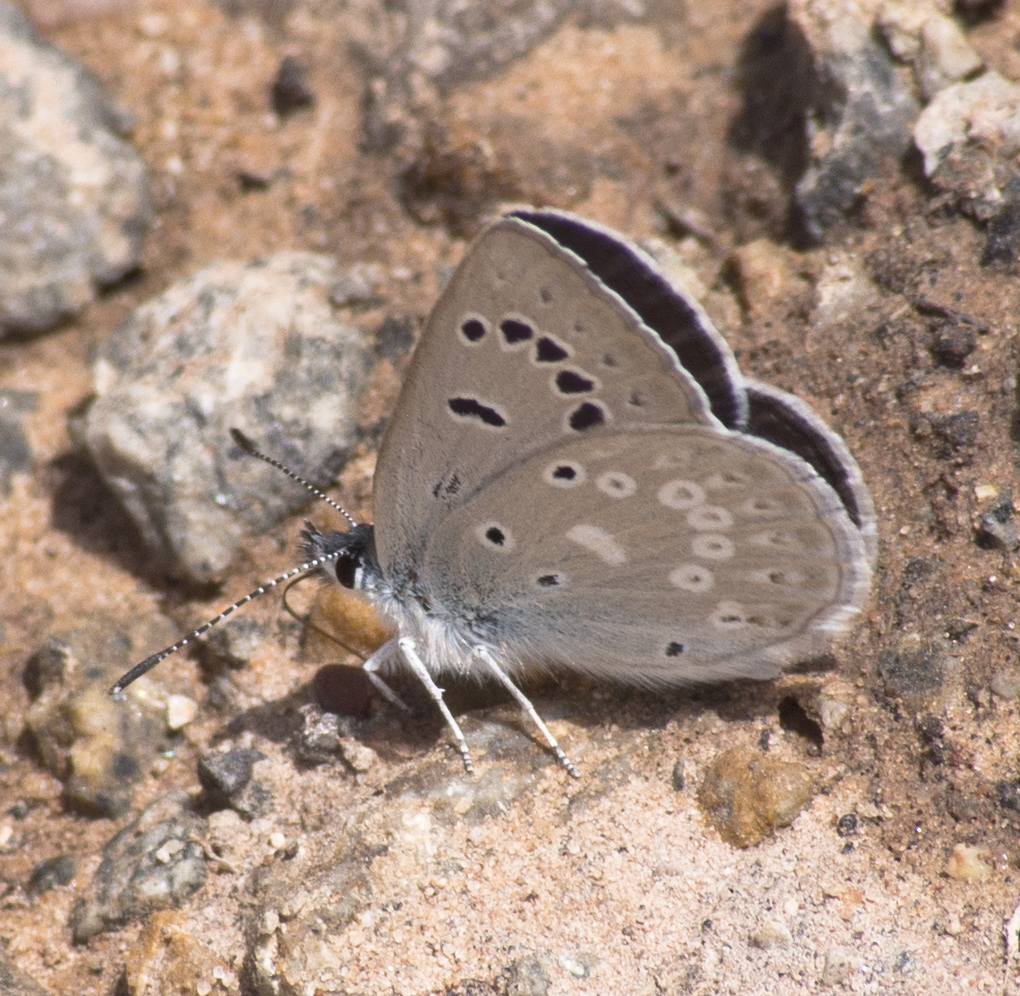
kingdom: Animalia
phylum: Arthropoda
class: Insecta
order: Lepidoptera
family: Lycaenidae
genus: Icaricia
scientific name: Icaricia icarioides
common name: Boisduval's blue
